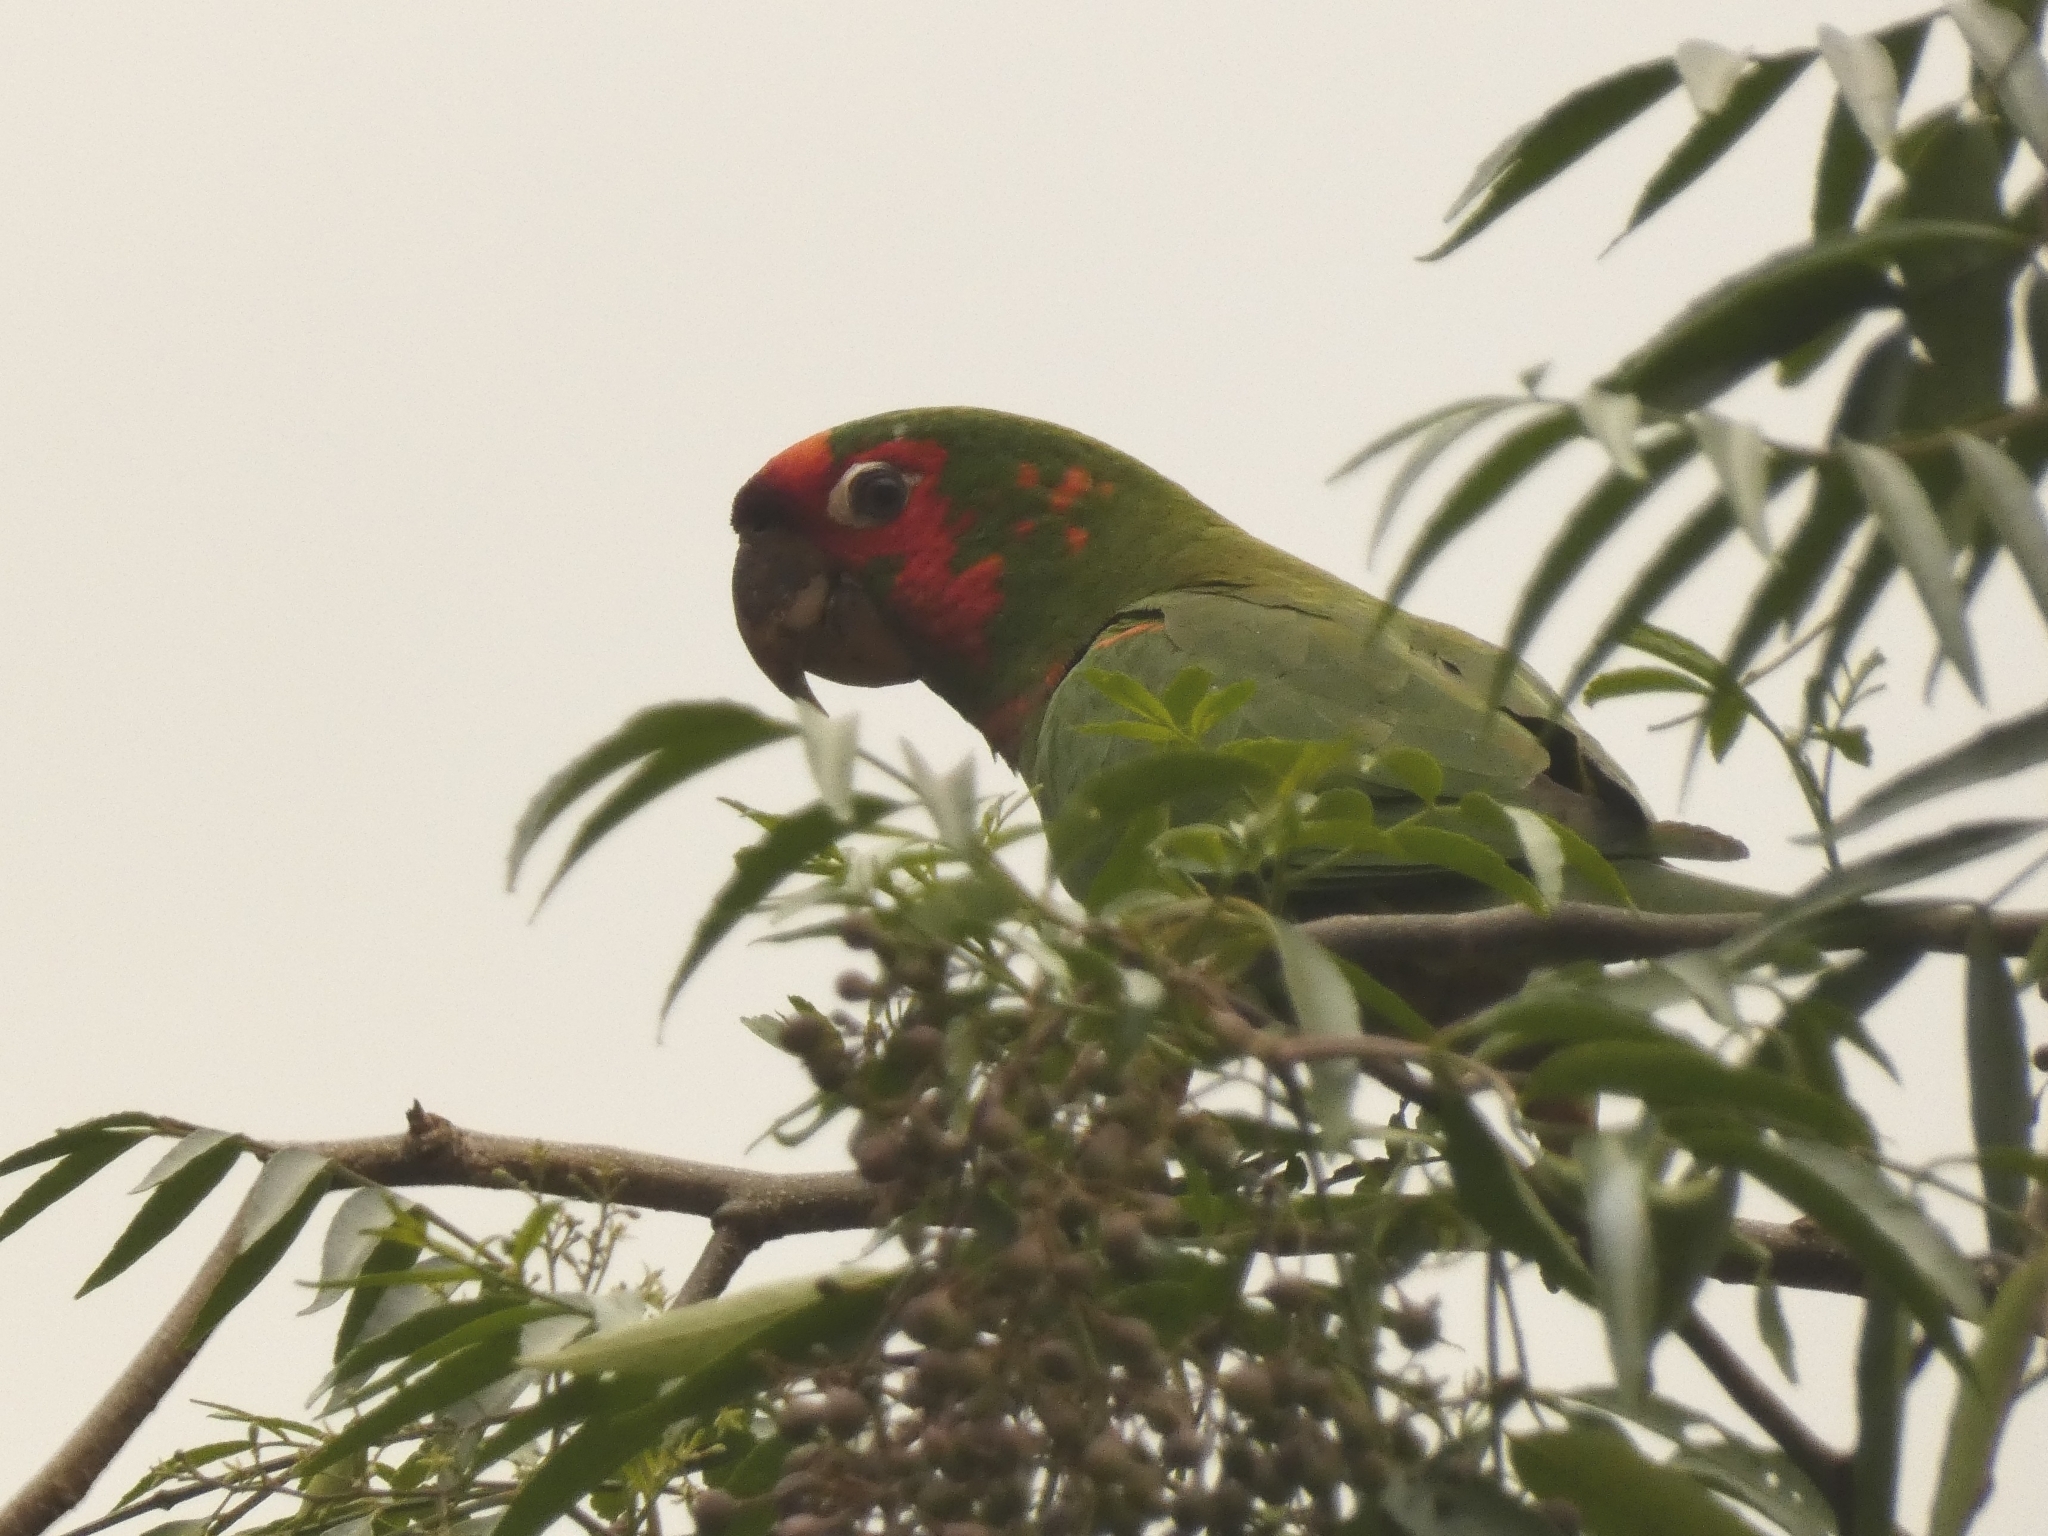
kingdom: Animalia
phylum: Chordata
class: Aves
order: Psittaciformes
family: Psittacidae
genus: Aratinga
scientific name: Aratinga mitrata
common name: Mitred parakeet
